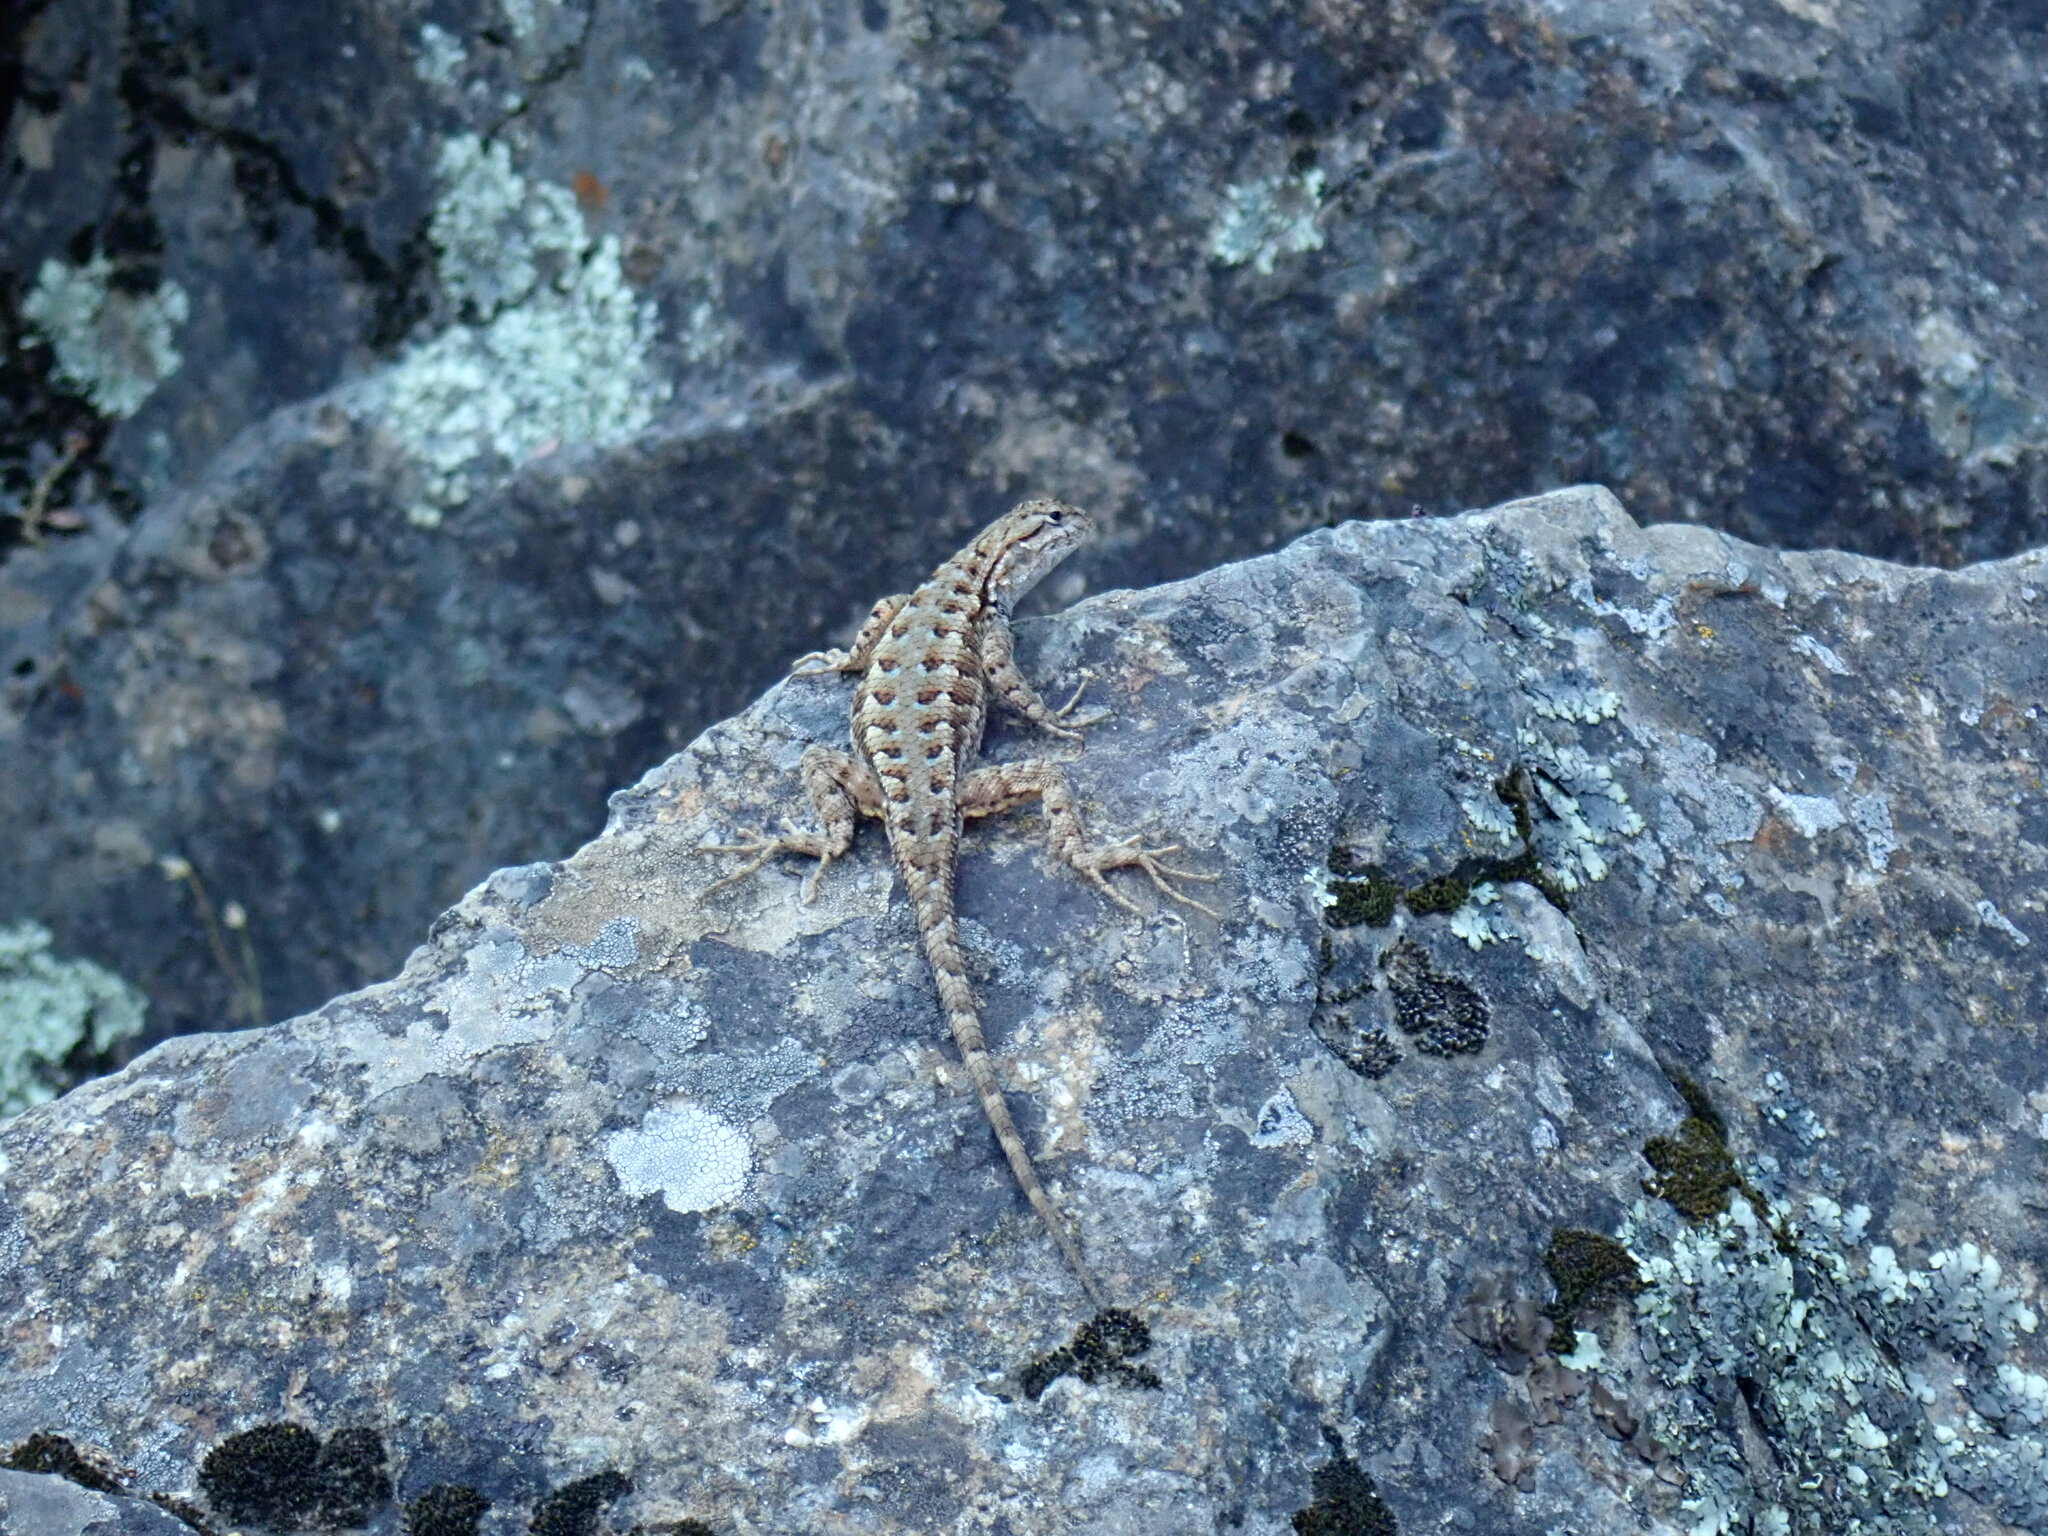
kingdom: Animalia
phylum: Chordata
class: Squamata
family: Phrynosomatidae
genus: Sceloporus
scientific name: Sceloporus occidentalis
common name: Western fence lizard
